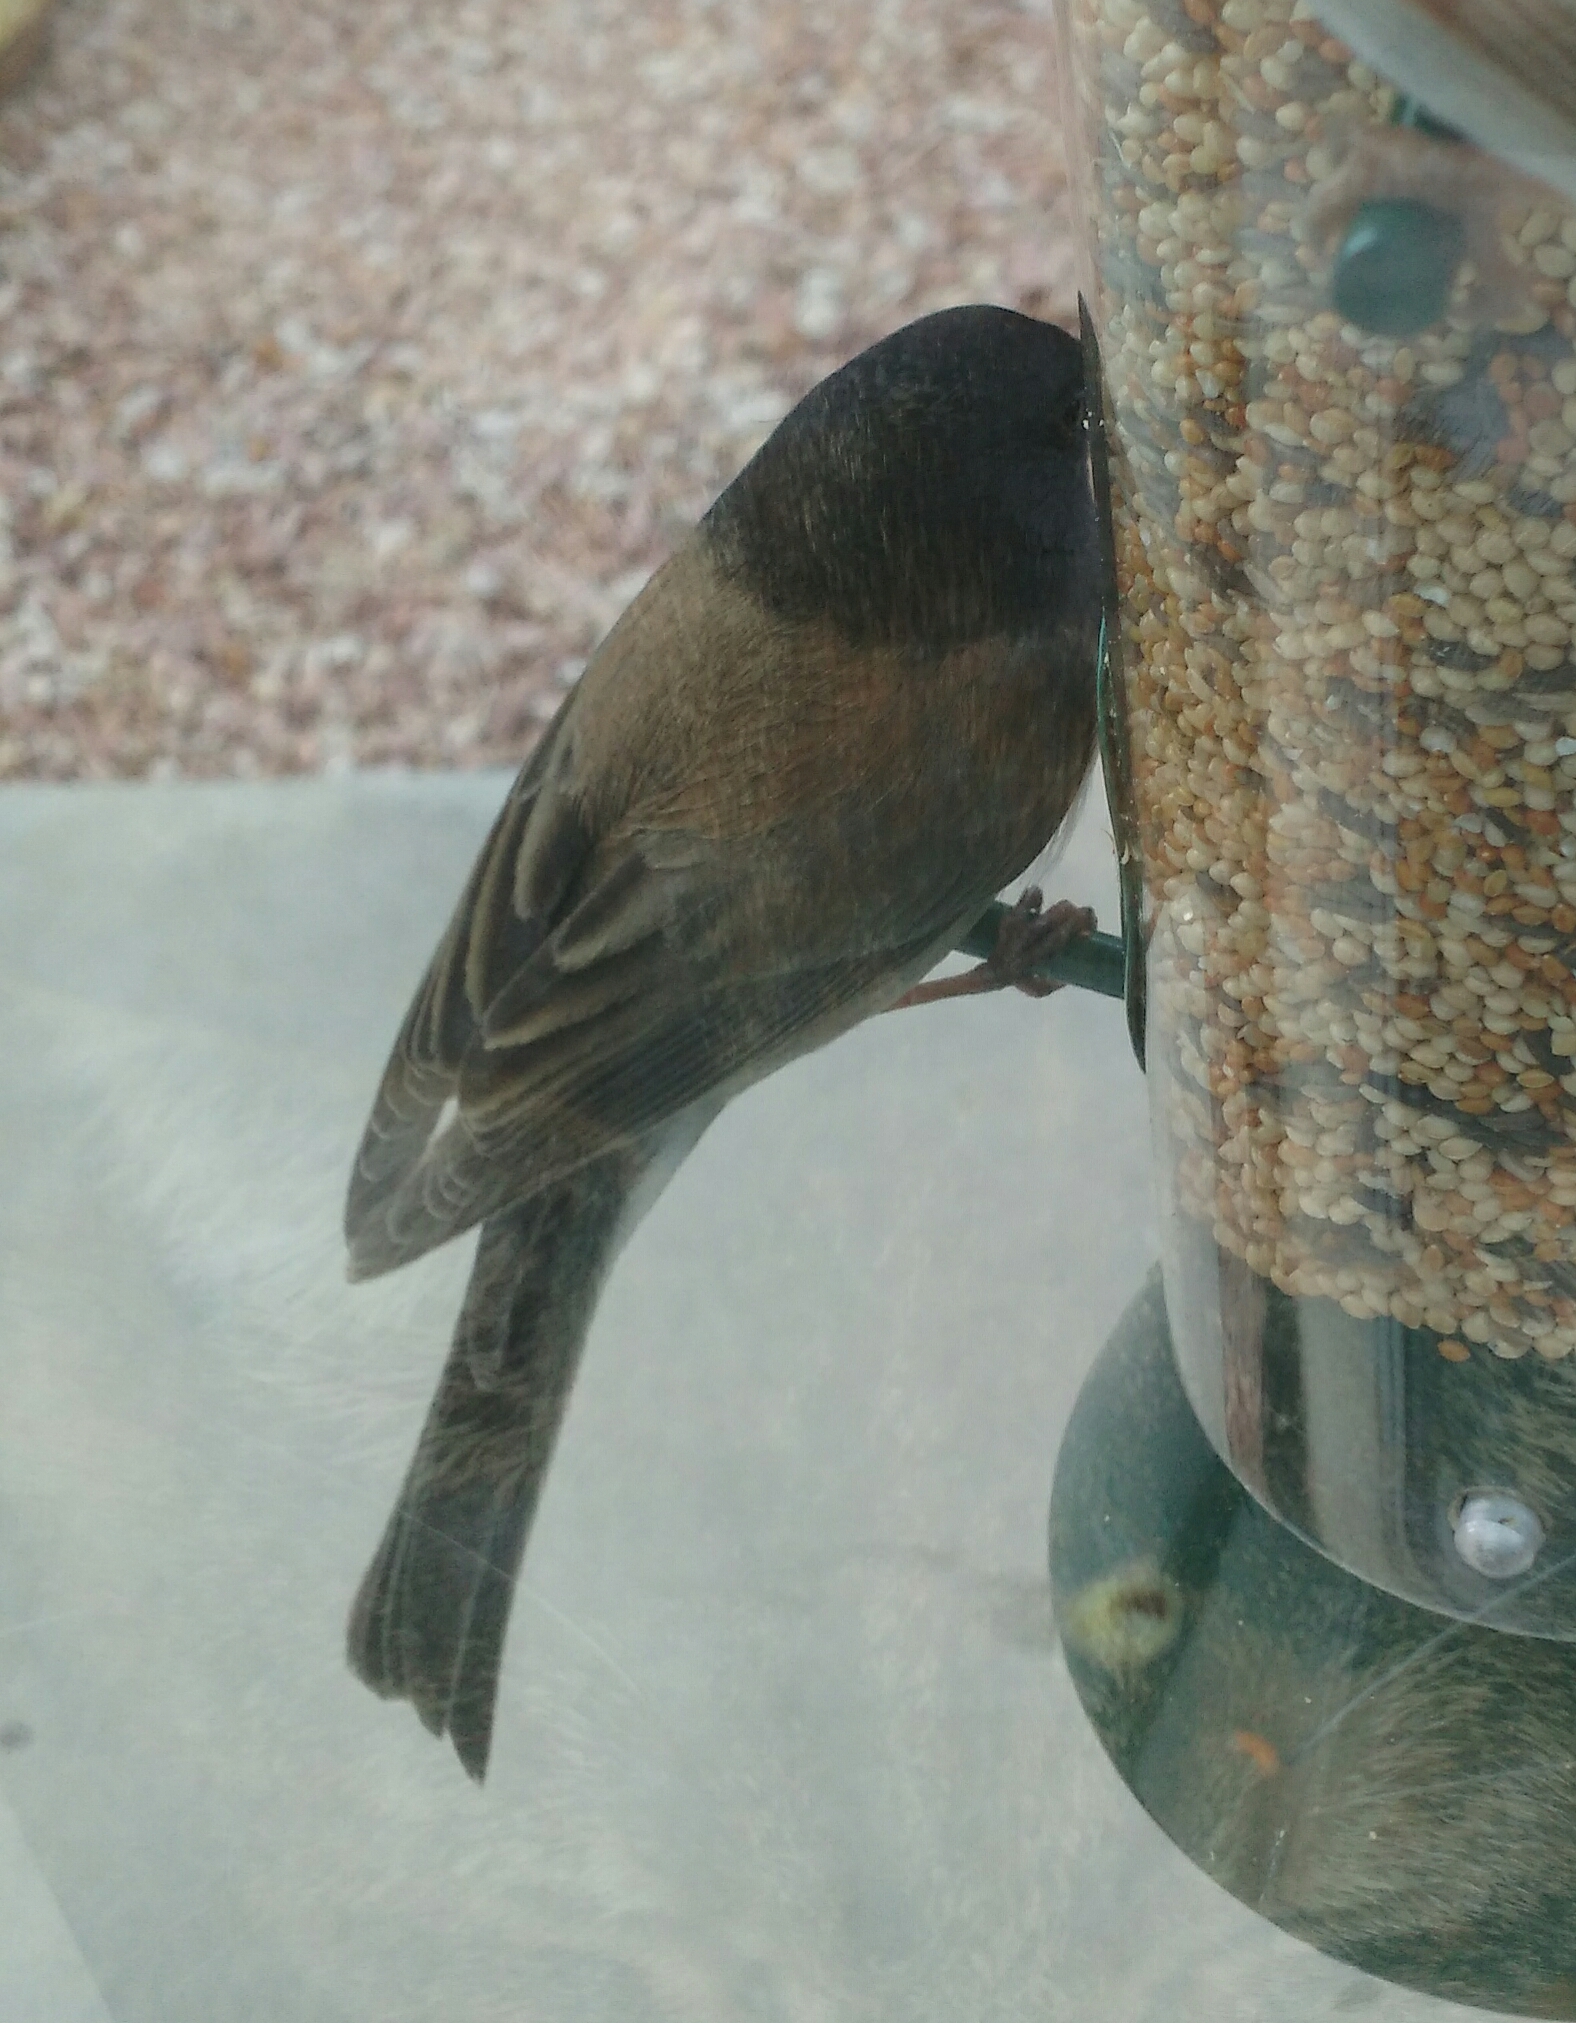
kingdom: Animalia
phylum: Chordata
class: Aves
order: Passeriformes
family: Passerellidae
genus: Junco
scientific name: Junco hyemalis
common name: Dark-eyed junco
